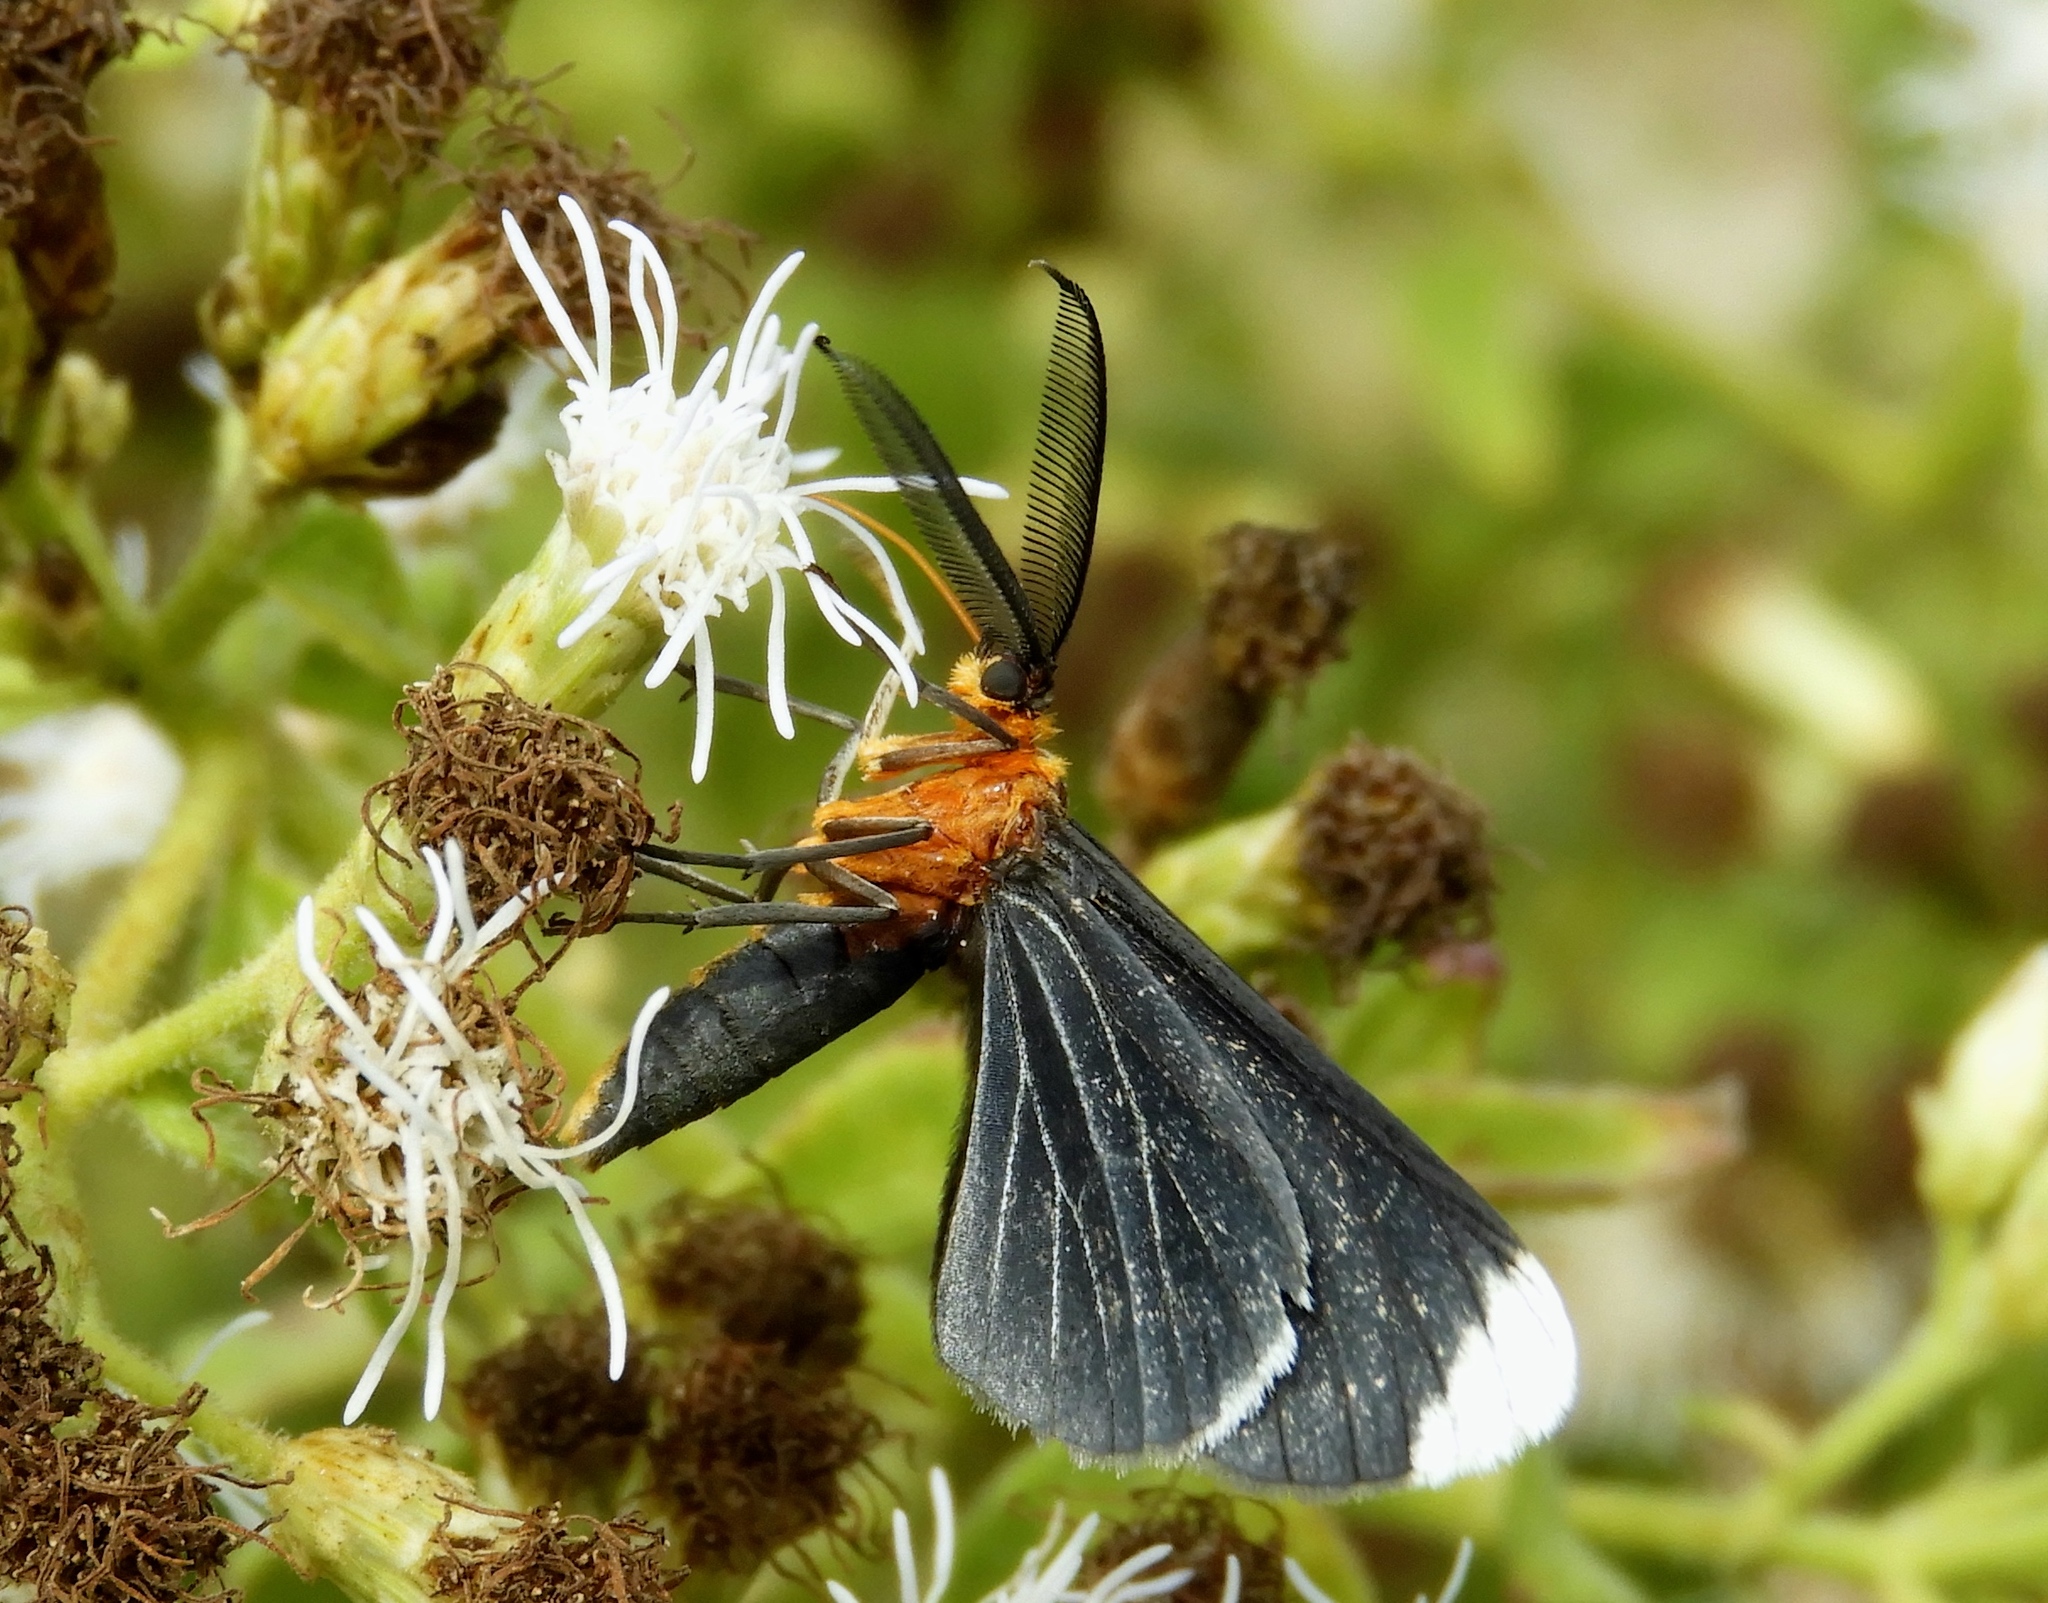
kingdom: Animalia
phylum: Arthropoda
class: Insecta
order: Lepidoptera
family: Geometridae
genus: Melanchroia
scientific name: Melanchroia chephise
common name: White-tipped black
